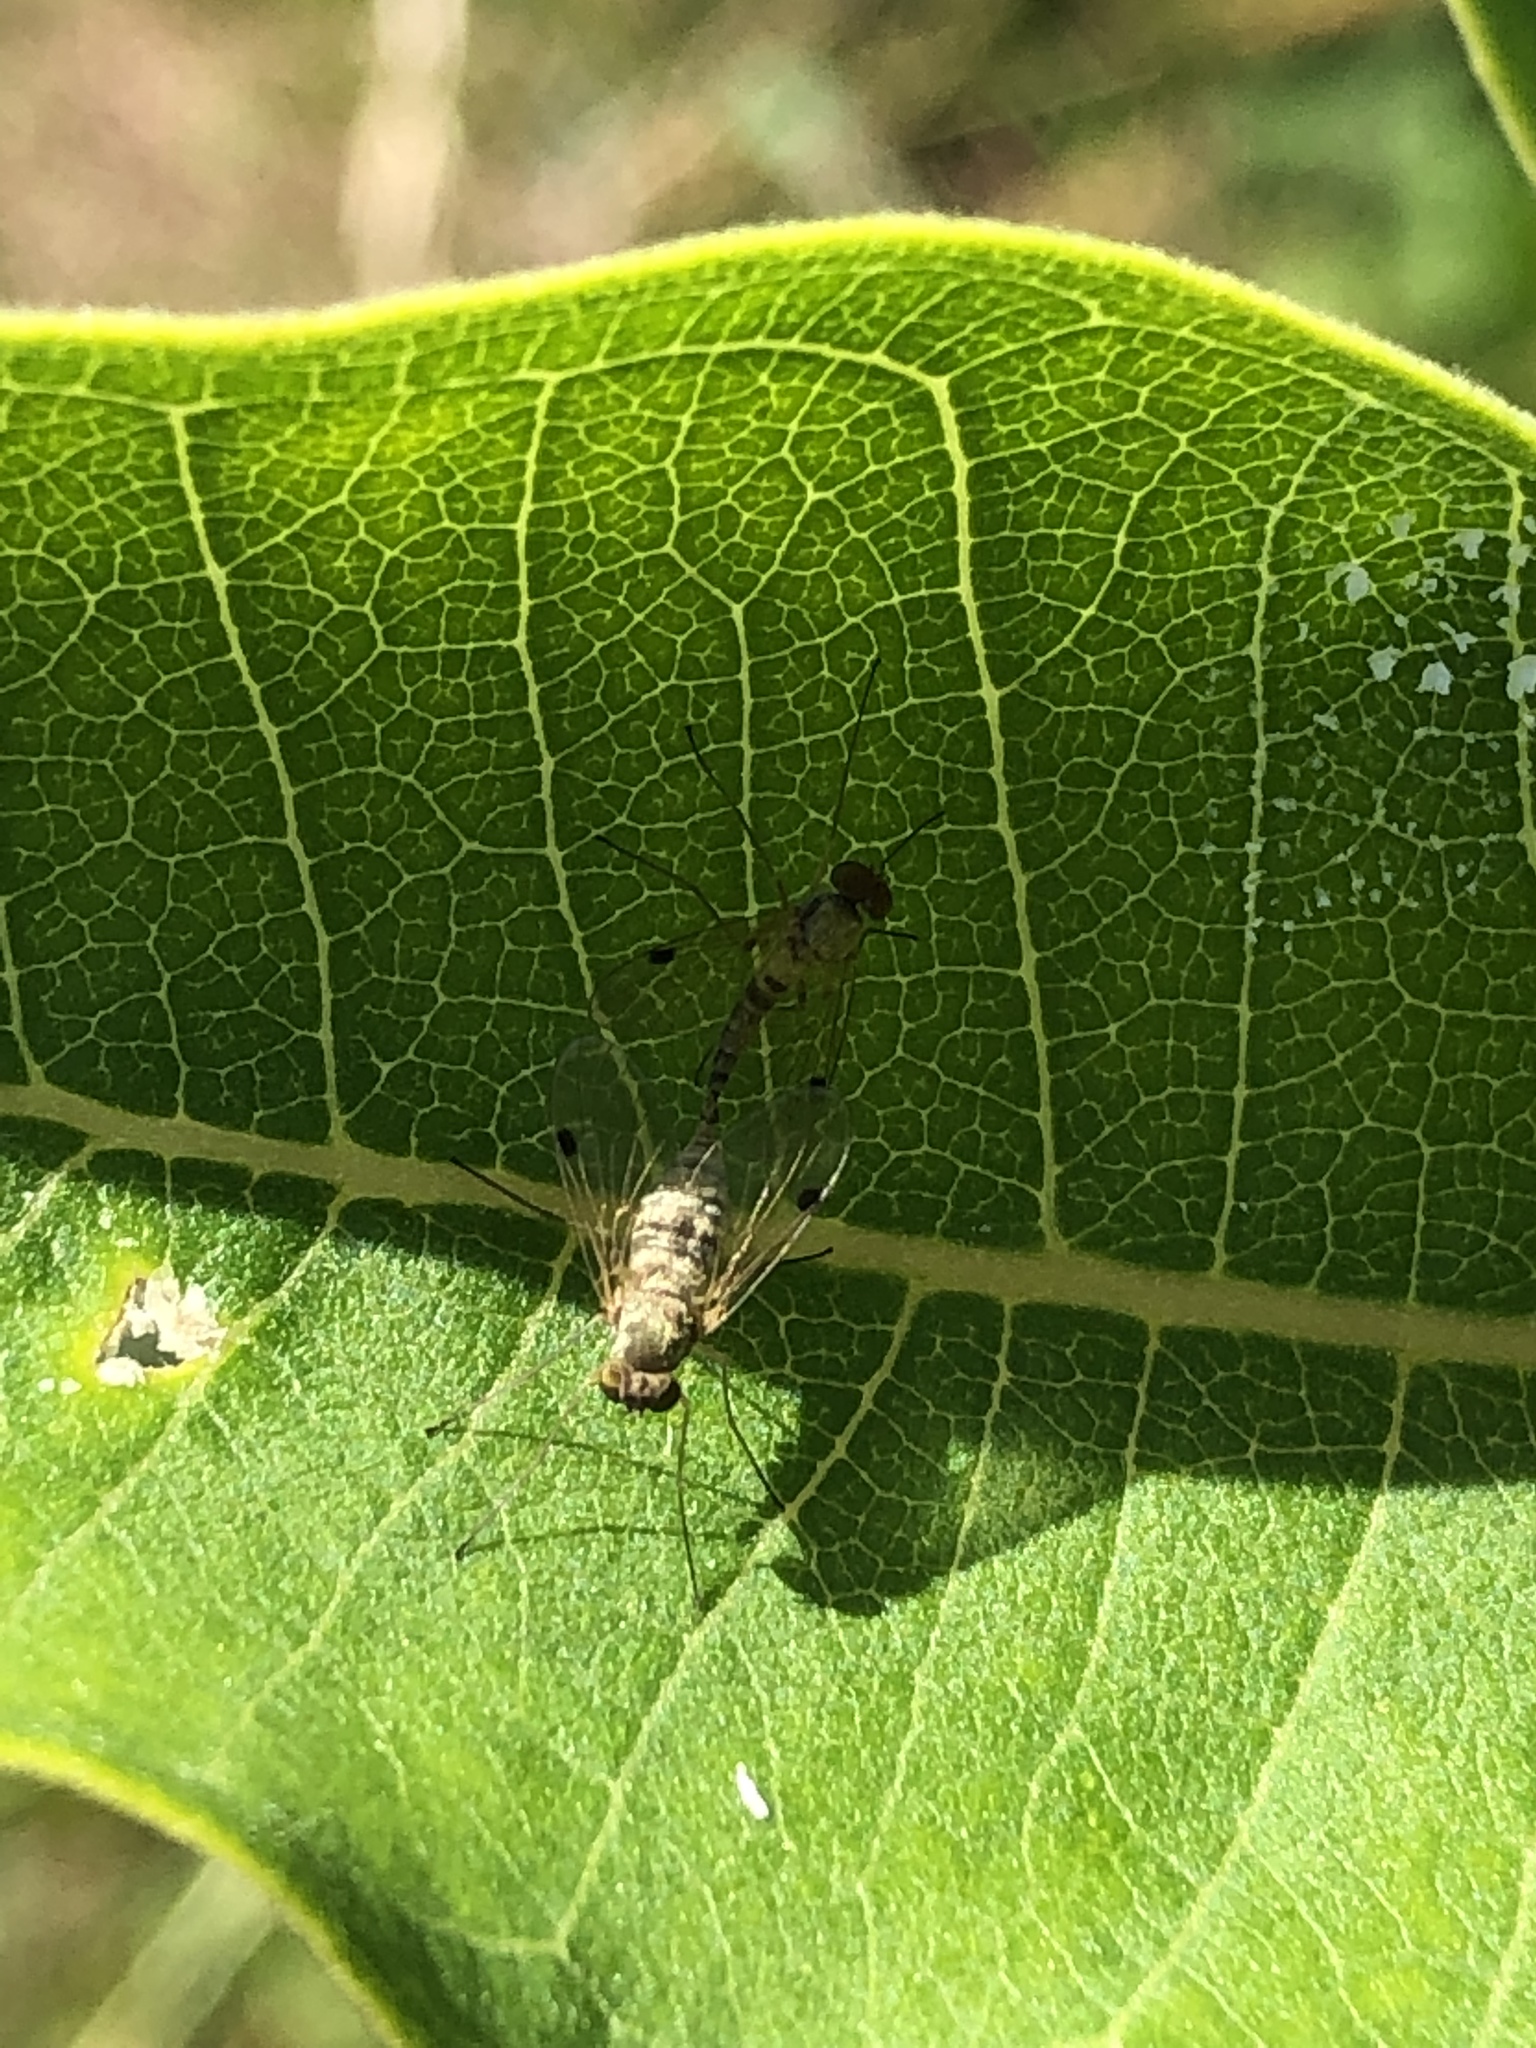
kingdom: Animalia
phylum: Arthropoda
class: Insecta
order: Diptera
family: Rhagionidae
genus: Chrysopilus
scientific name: Chrysopilus modestus
